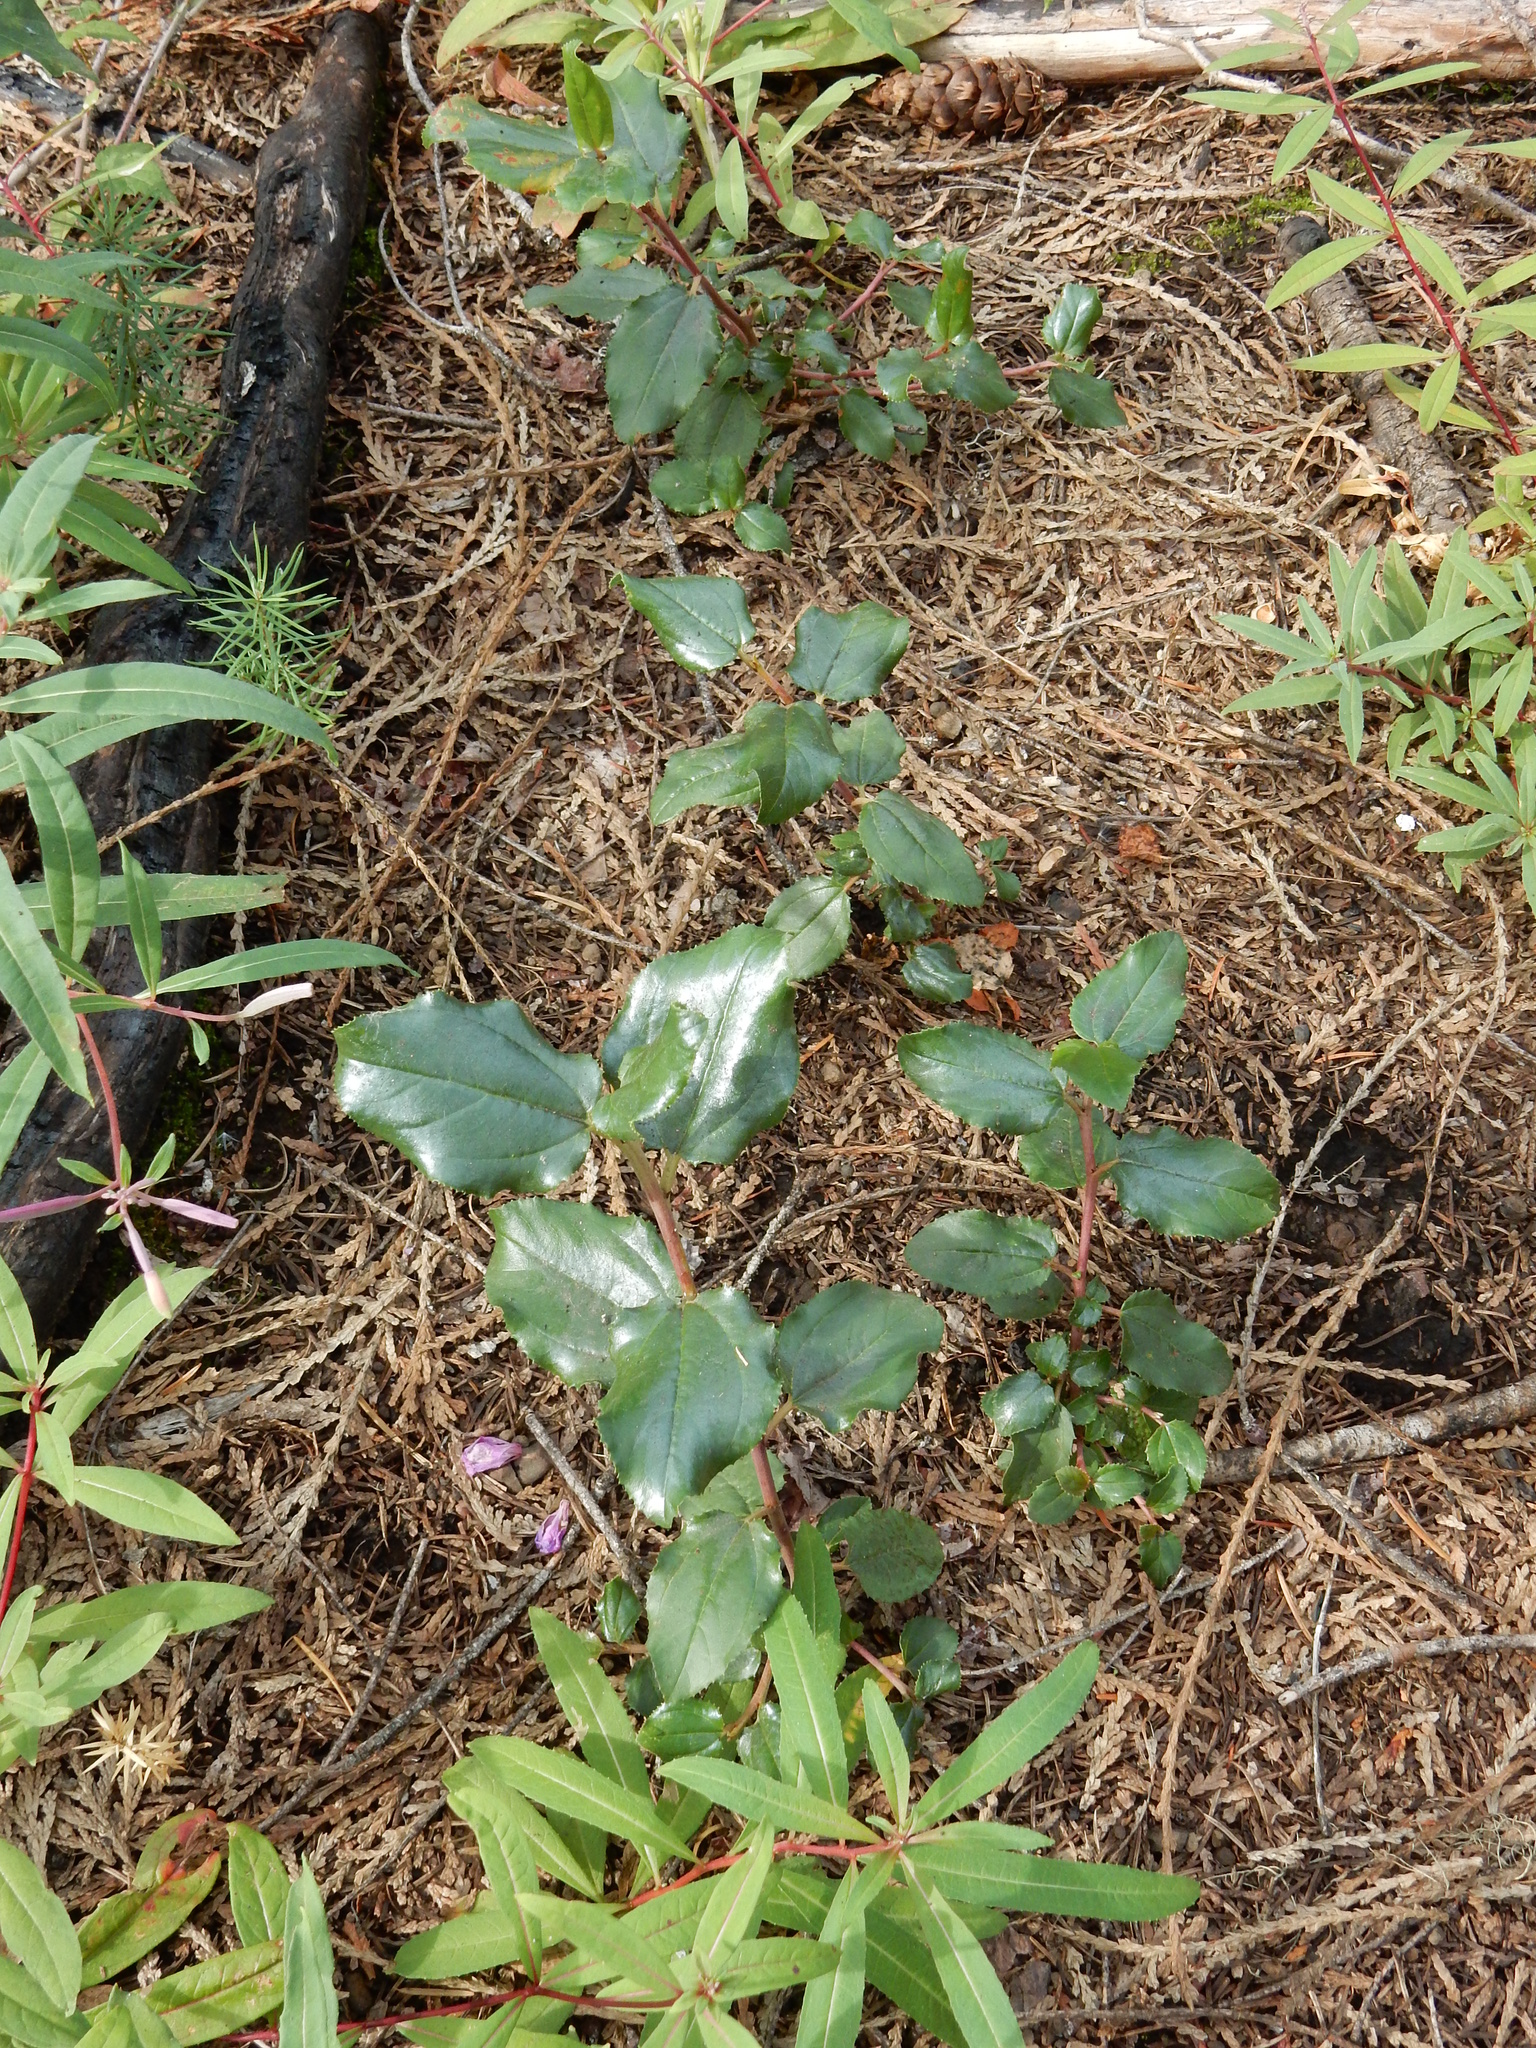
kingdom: Plantae
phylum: Tracheophyta
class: Magnoliopsida
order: Rosales
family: Rhamnaceae
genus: Ceanothus
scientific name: Ceanothus velutinus
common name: Snowbrush
